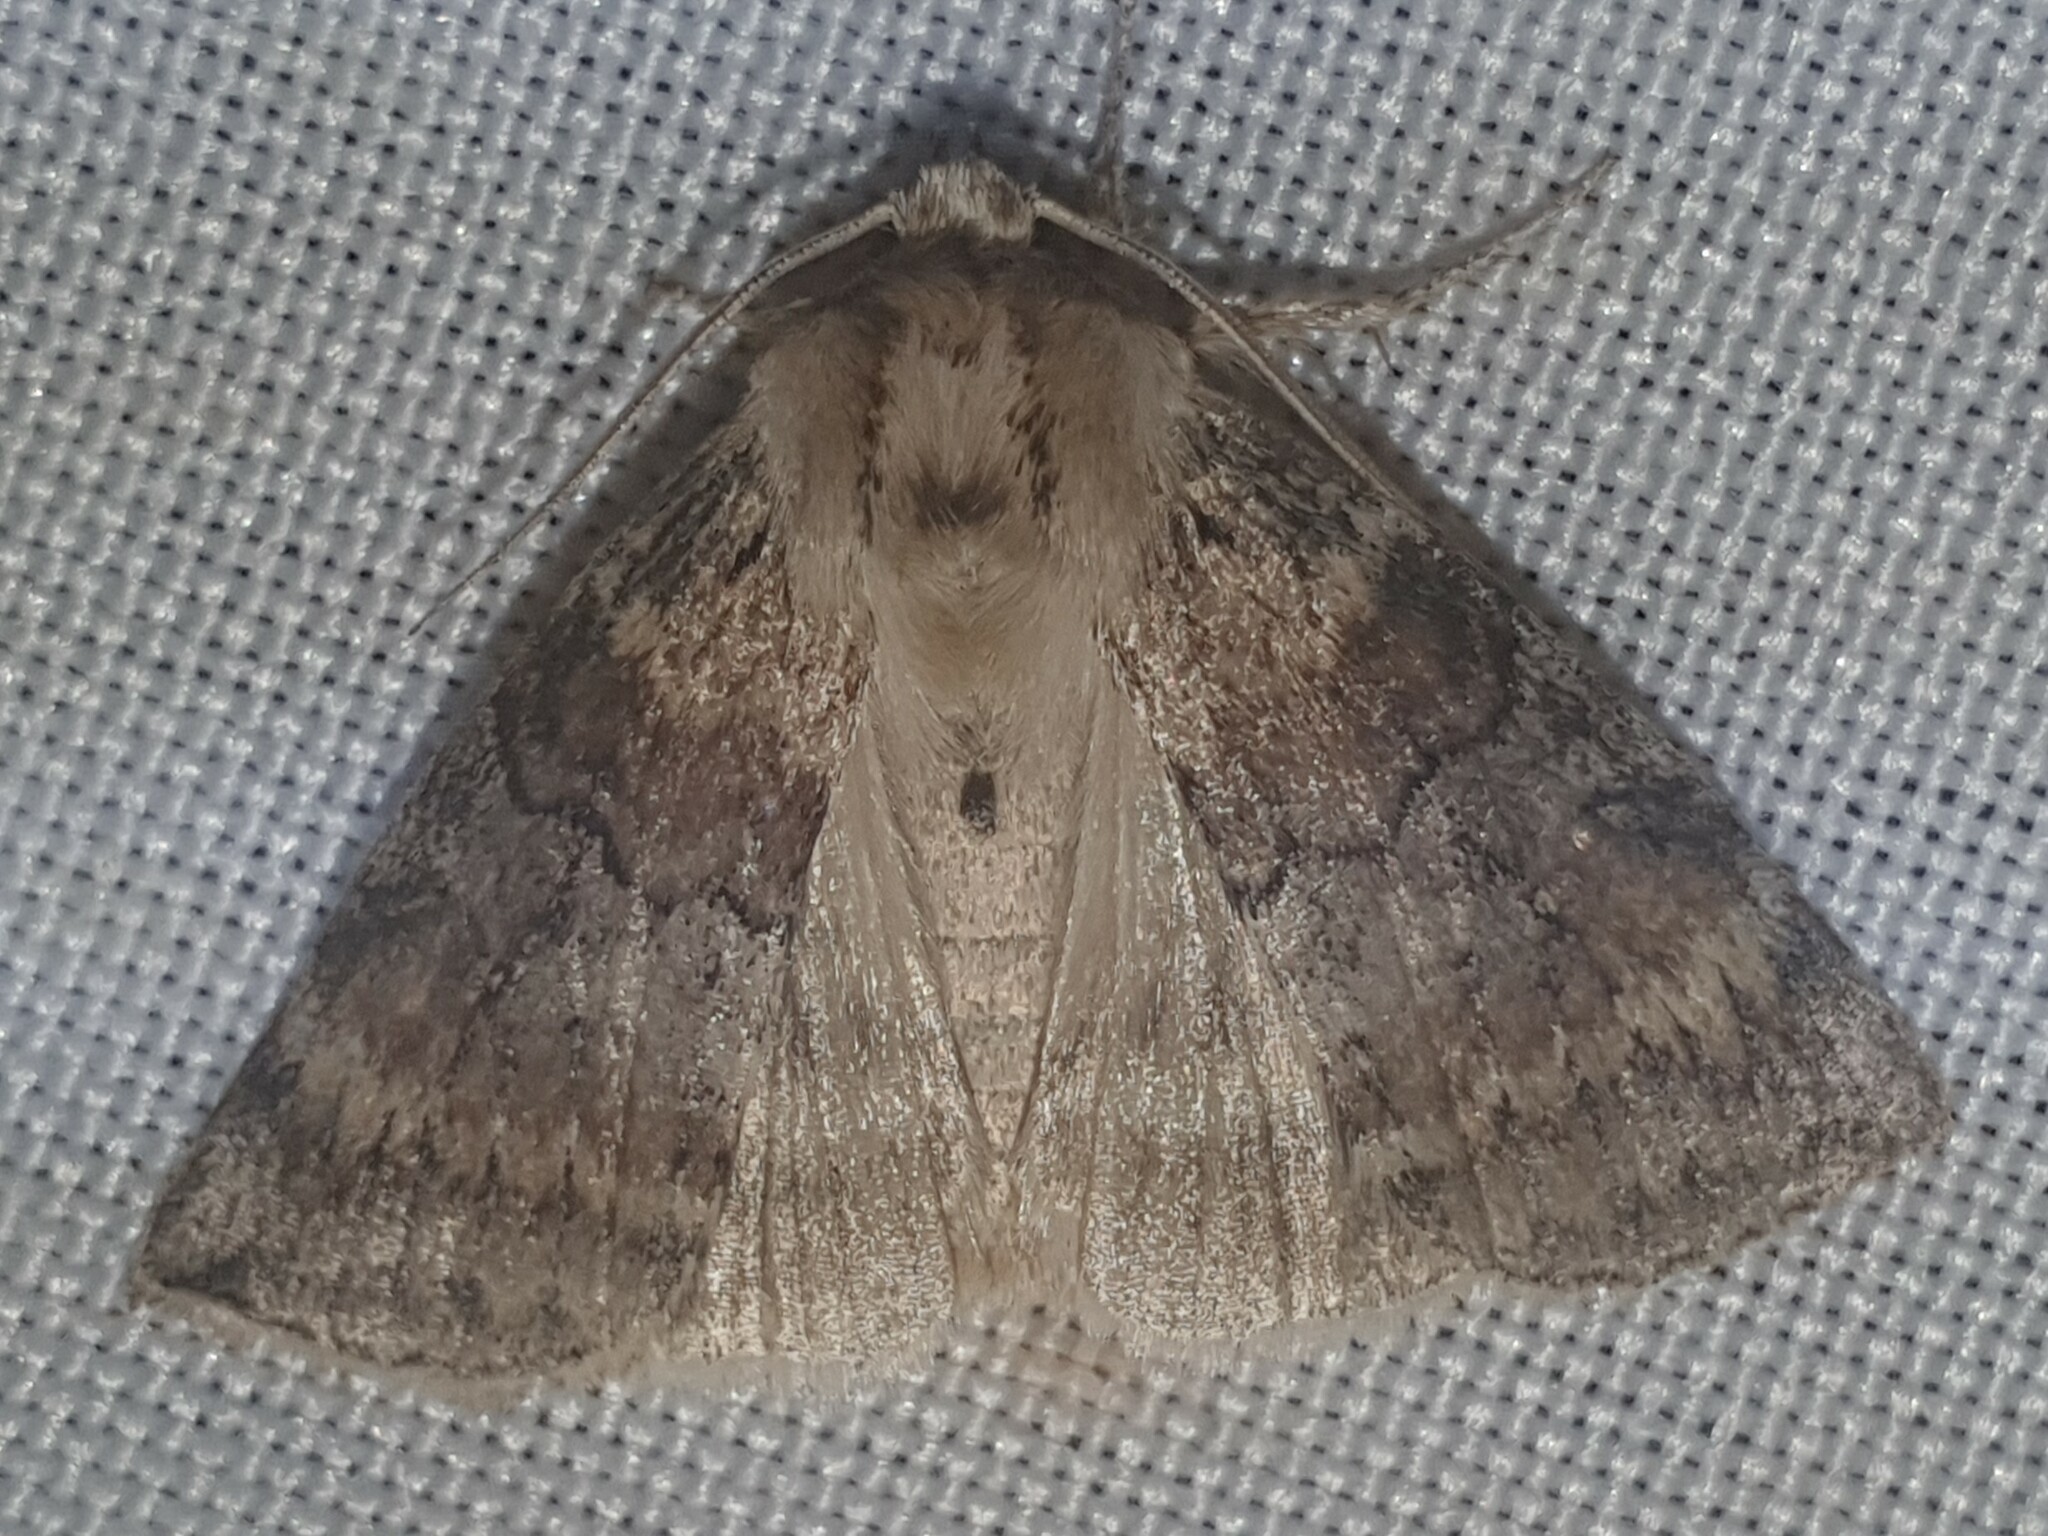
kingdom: Animalia
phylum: Arthropoda
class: Insecta
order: Lepidoptera
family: Drepanidae
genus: Cymatophorina
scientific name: Cymatophorina diluta
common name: Oak lutestring
